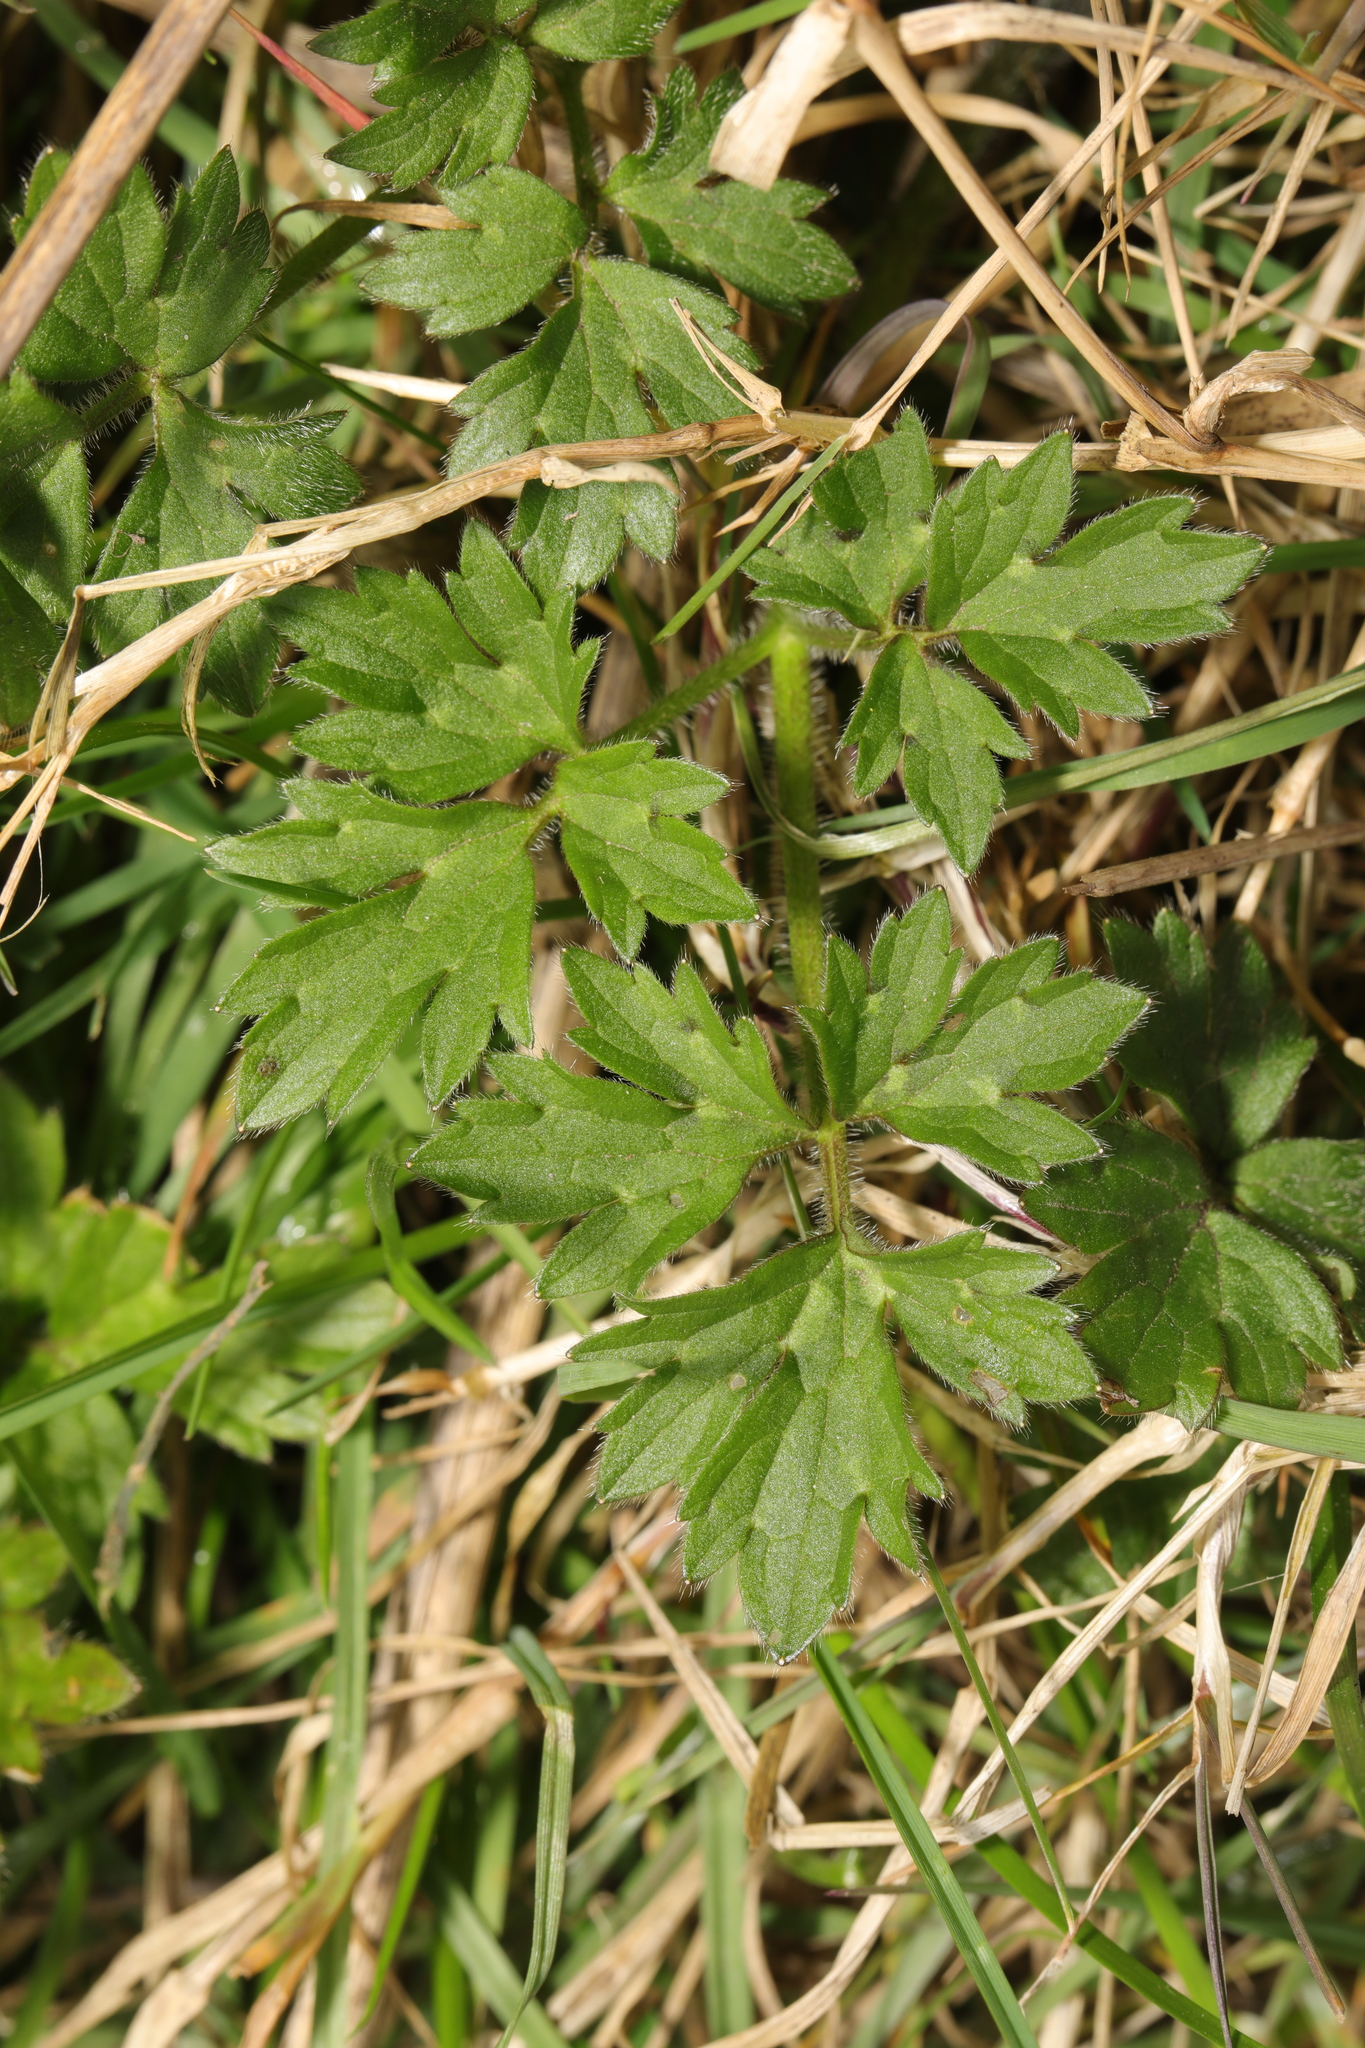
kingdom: Plantae
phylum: Tracheophyta
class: Magnoliopsida
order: Ranunculales
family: Ranunculaceae
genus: Ranunculus
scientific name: Ranunculus repens
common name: Creeping buttercup
